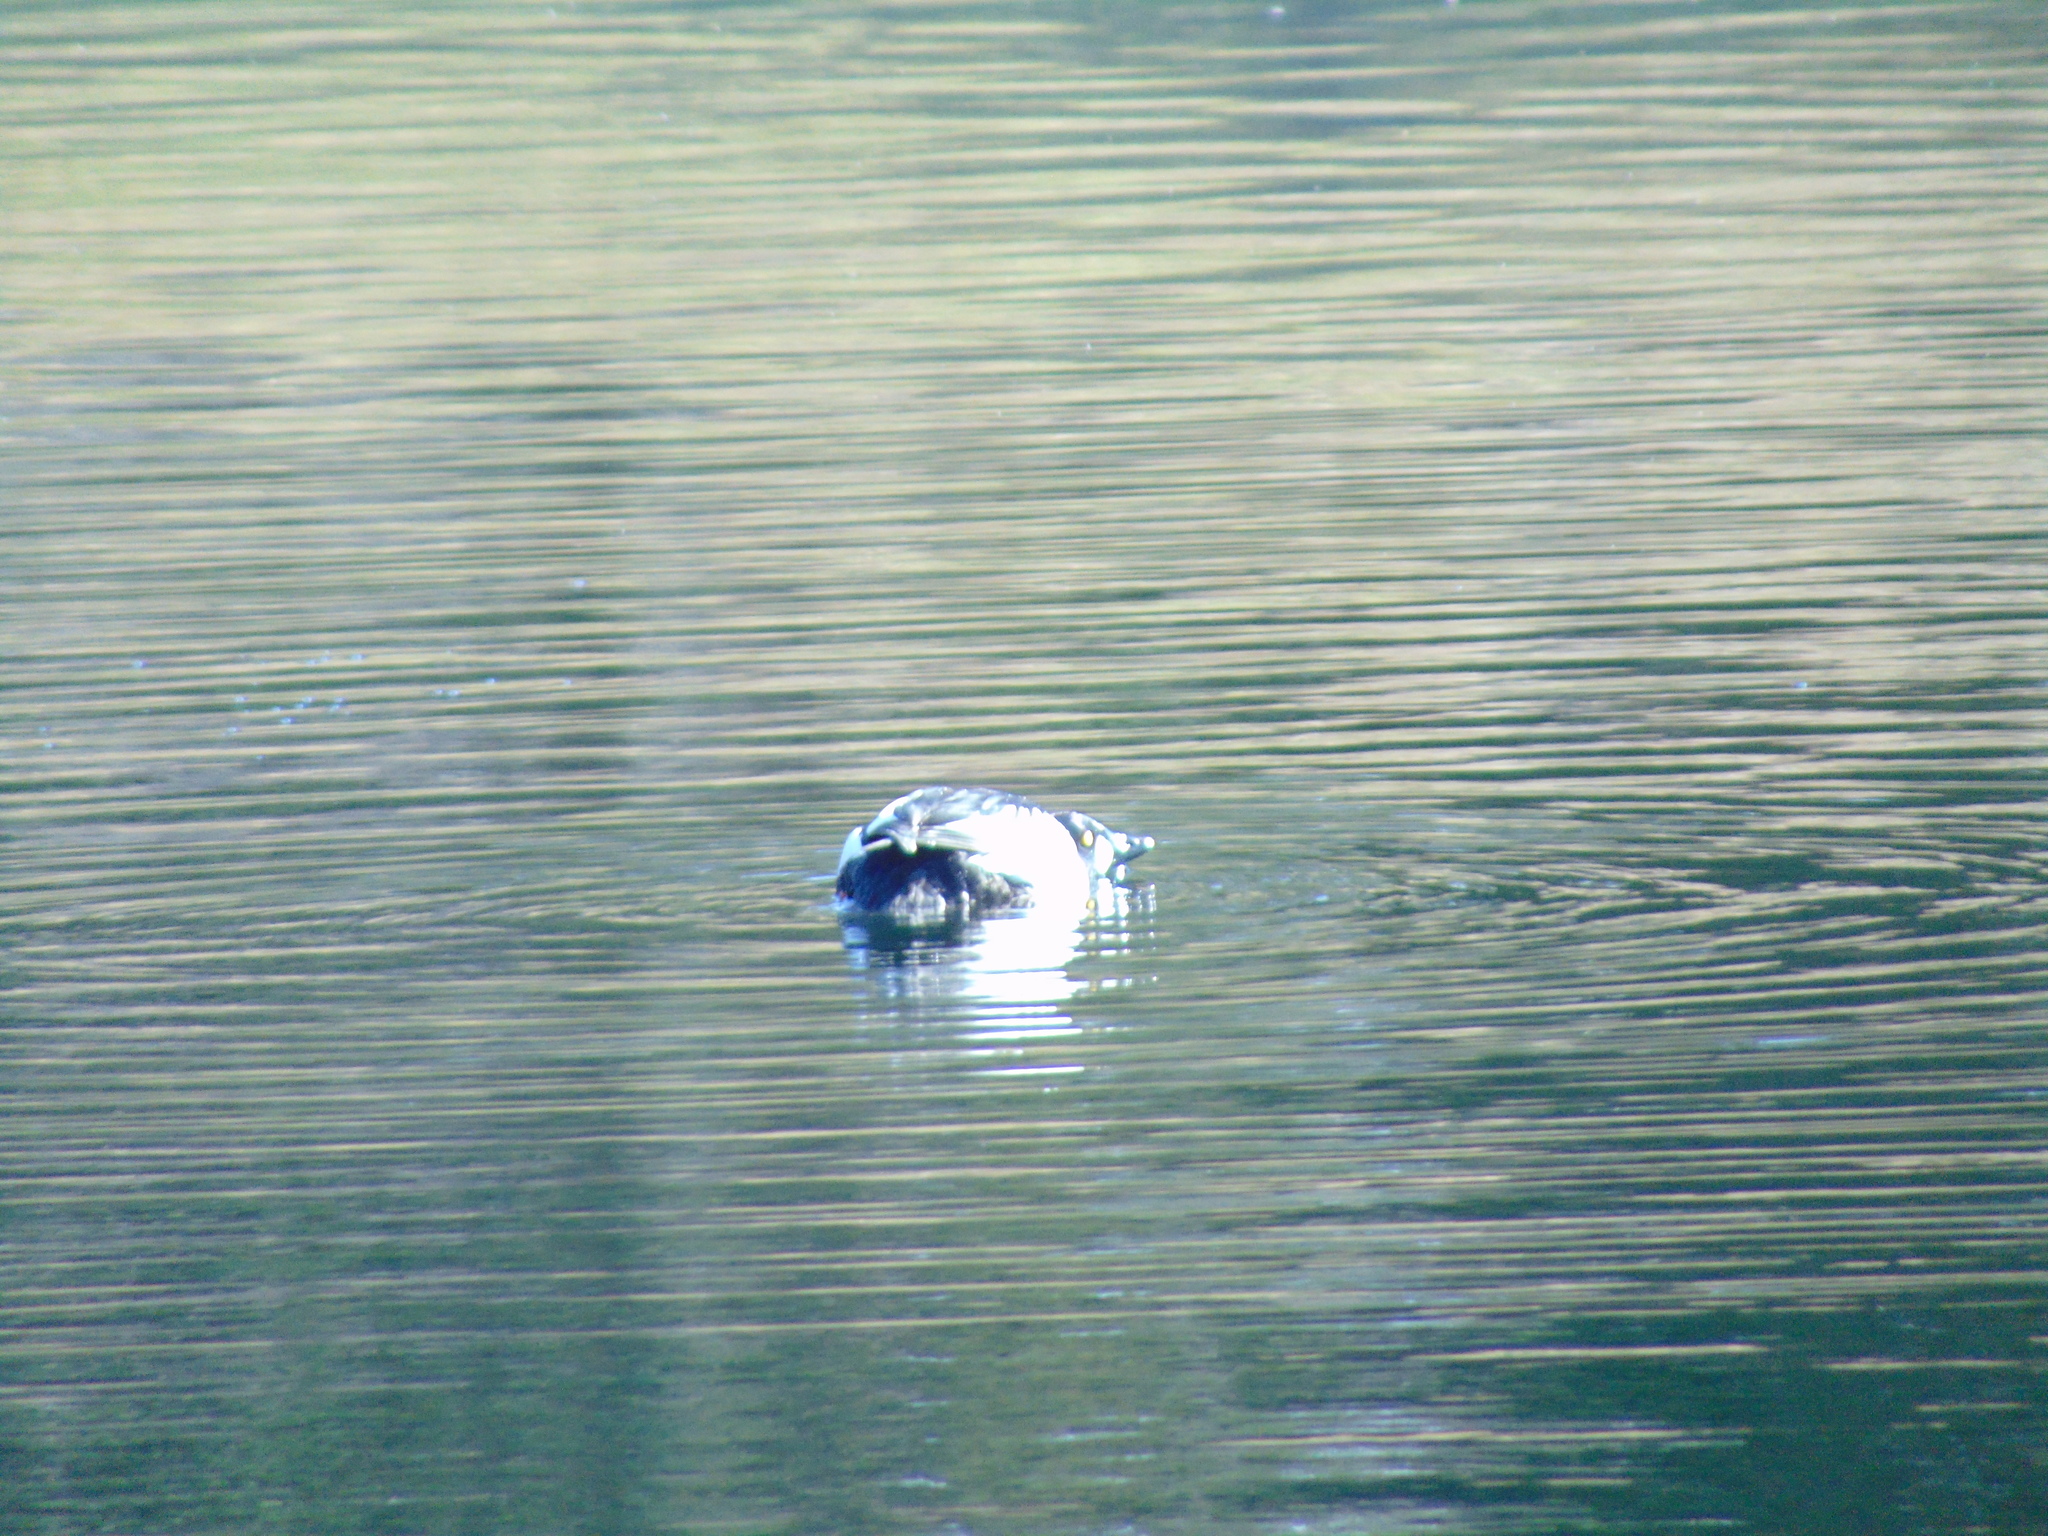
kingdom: Animalia
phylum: Chordata
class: Aves
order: Anseriformes
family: Anatidae
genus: Bucephala
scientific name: Bucephala clangula
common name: Common goldeneye
